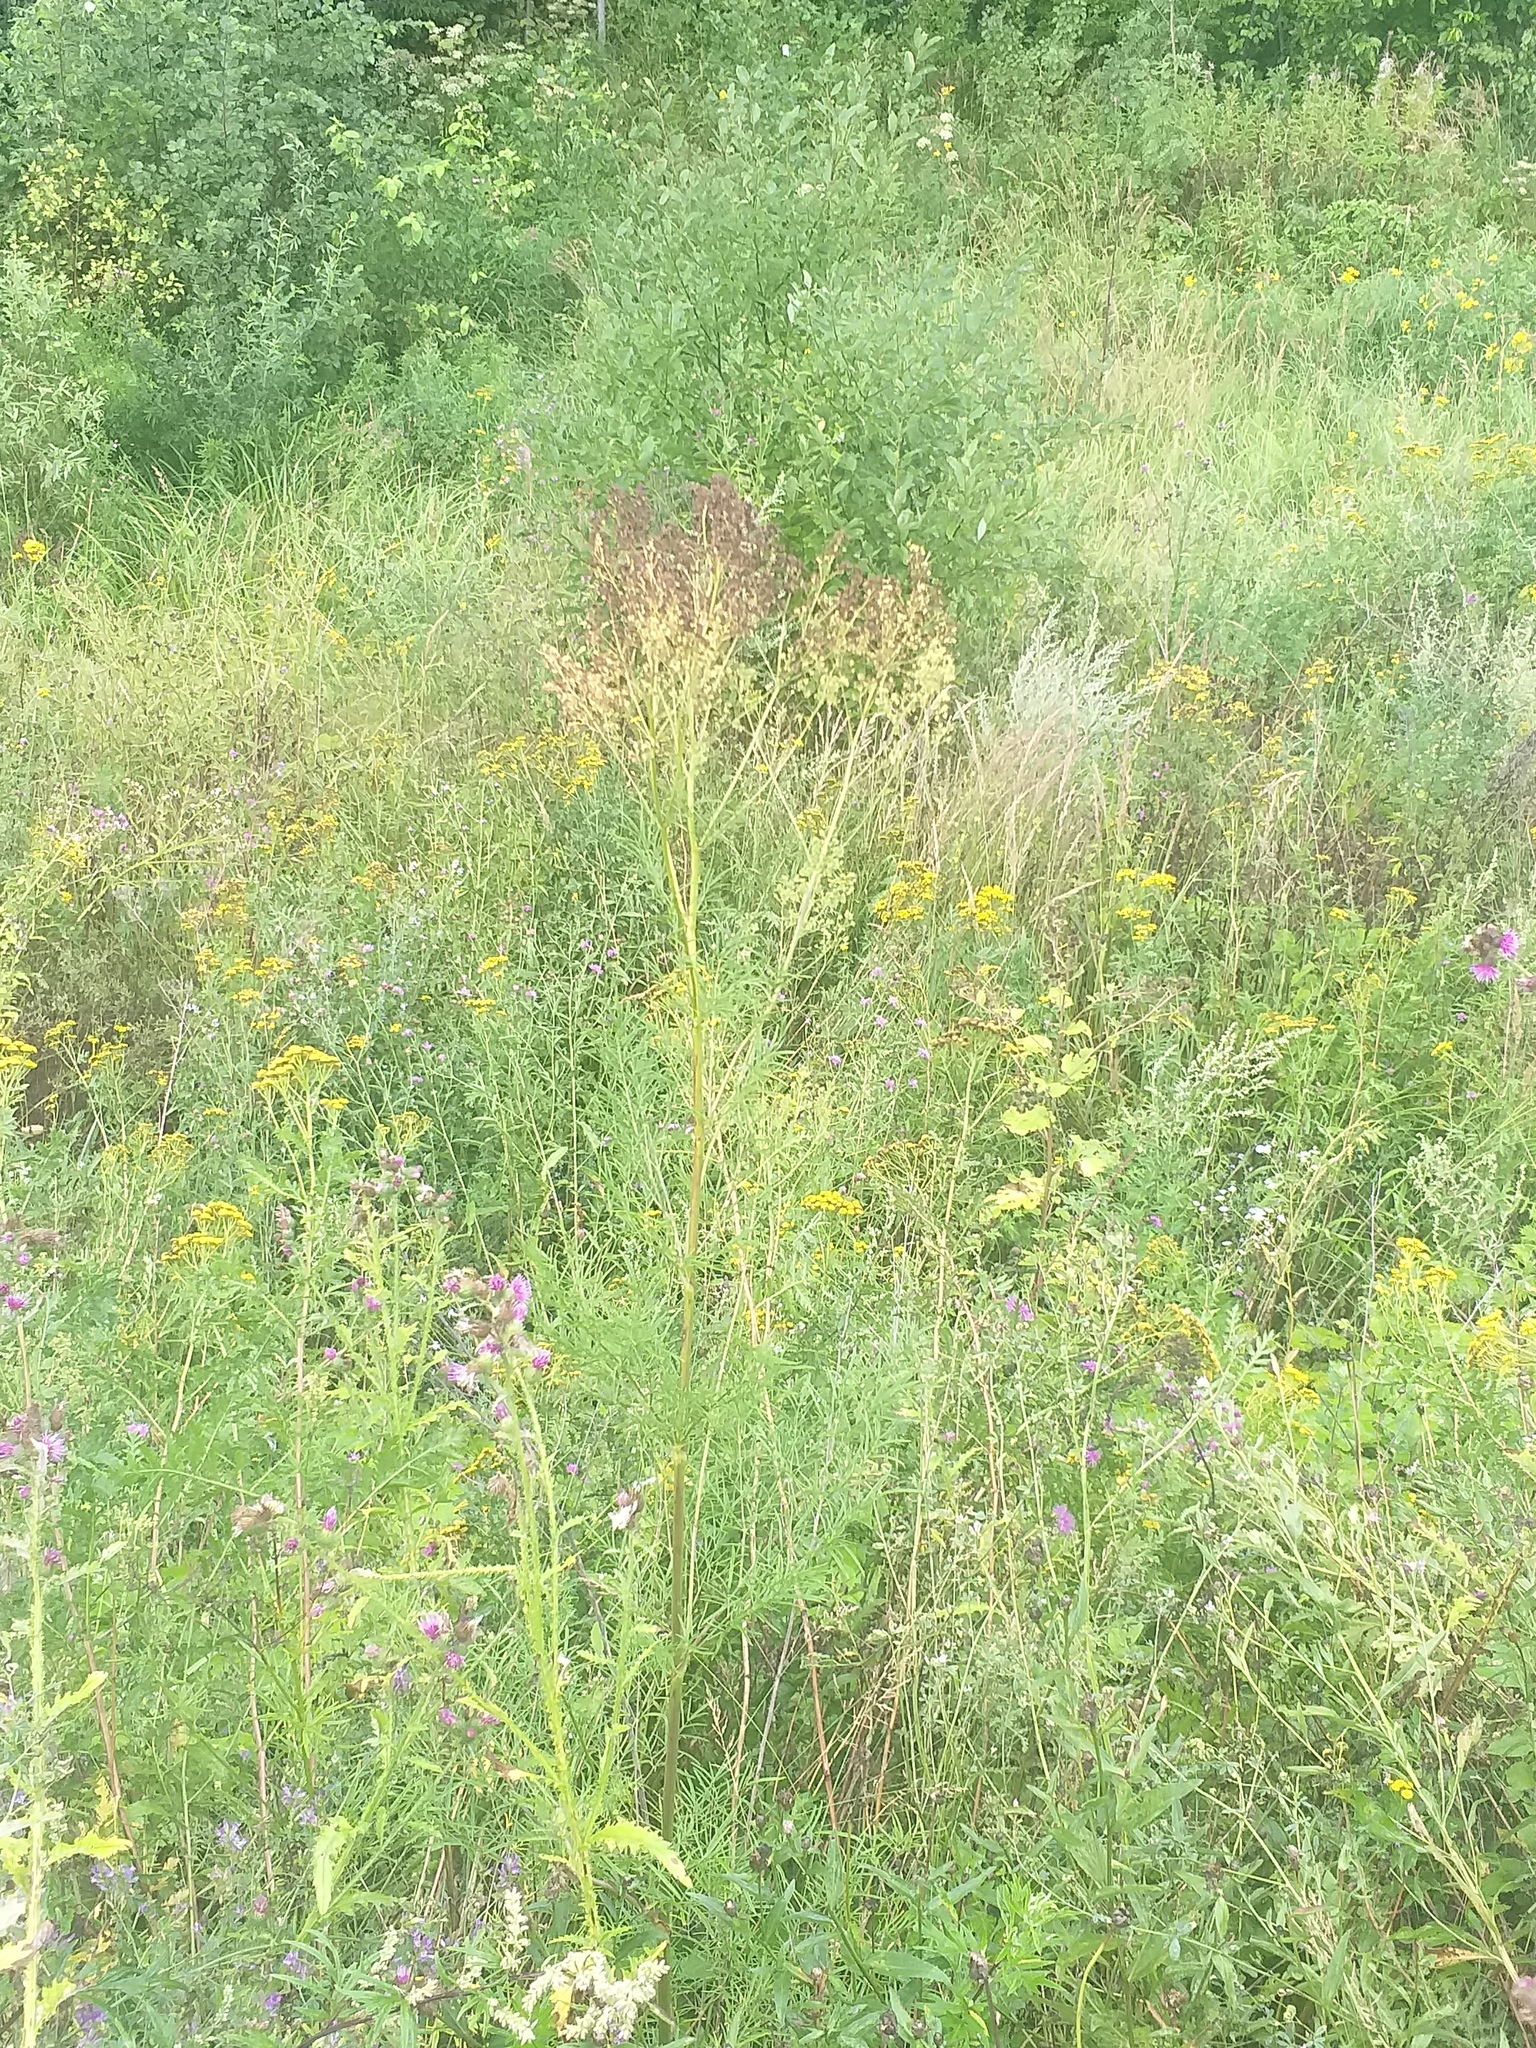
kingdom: Plantae
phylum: Tracheophyta
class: Magnoliopsida
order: Ranunculales
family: Ranunculaceae
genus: Thalictrum
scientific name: Thalictrum lucidum
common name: Shining meadow-rue
